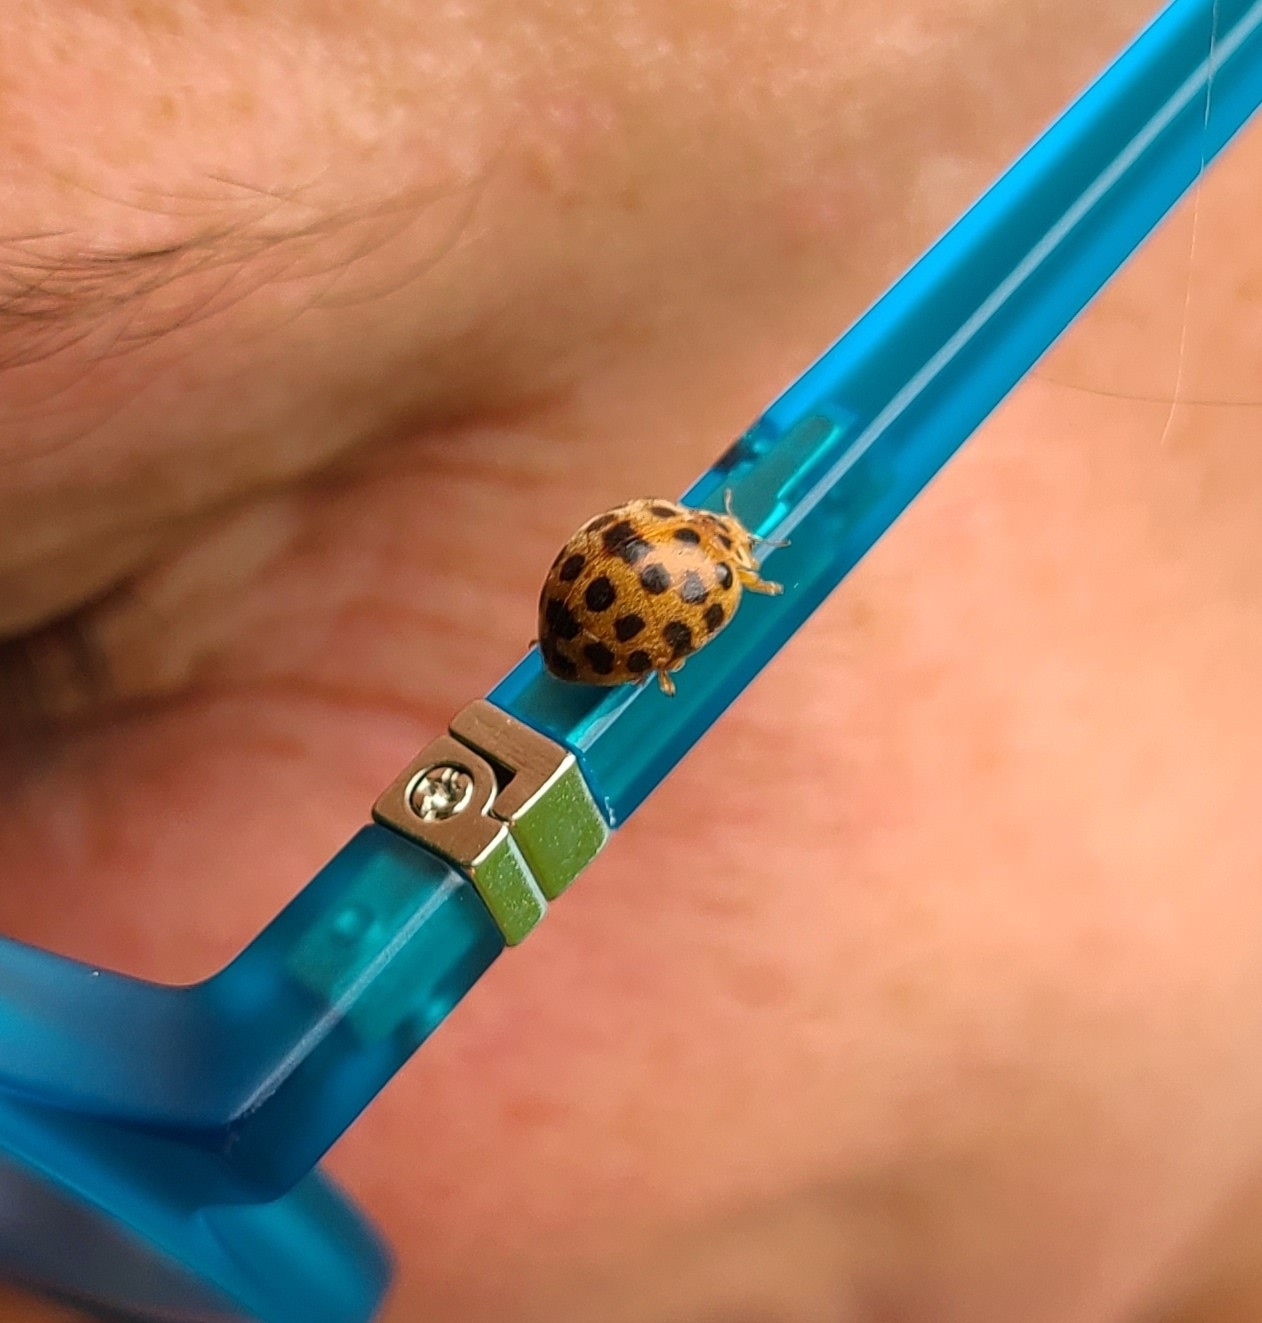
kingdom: Animalia
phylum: Arthropoda
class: Insecta
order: Coleoptera
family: Coccinellidae
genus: Henosepilachna
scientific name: Henosepilachna vigintioctopunctata
